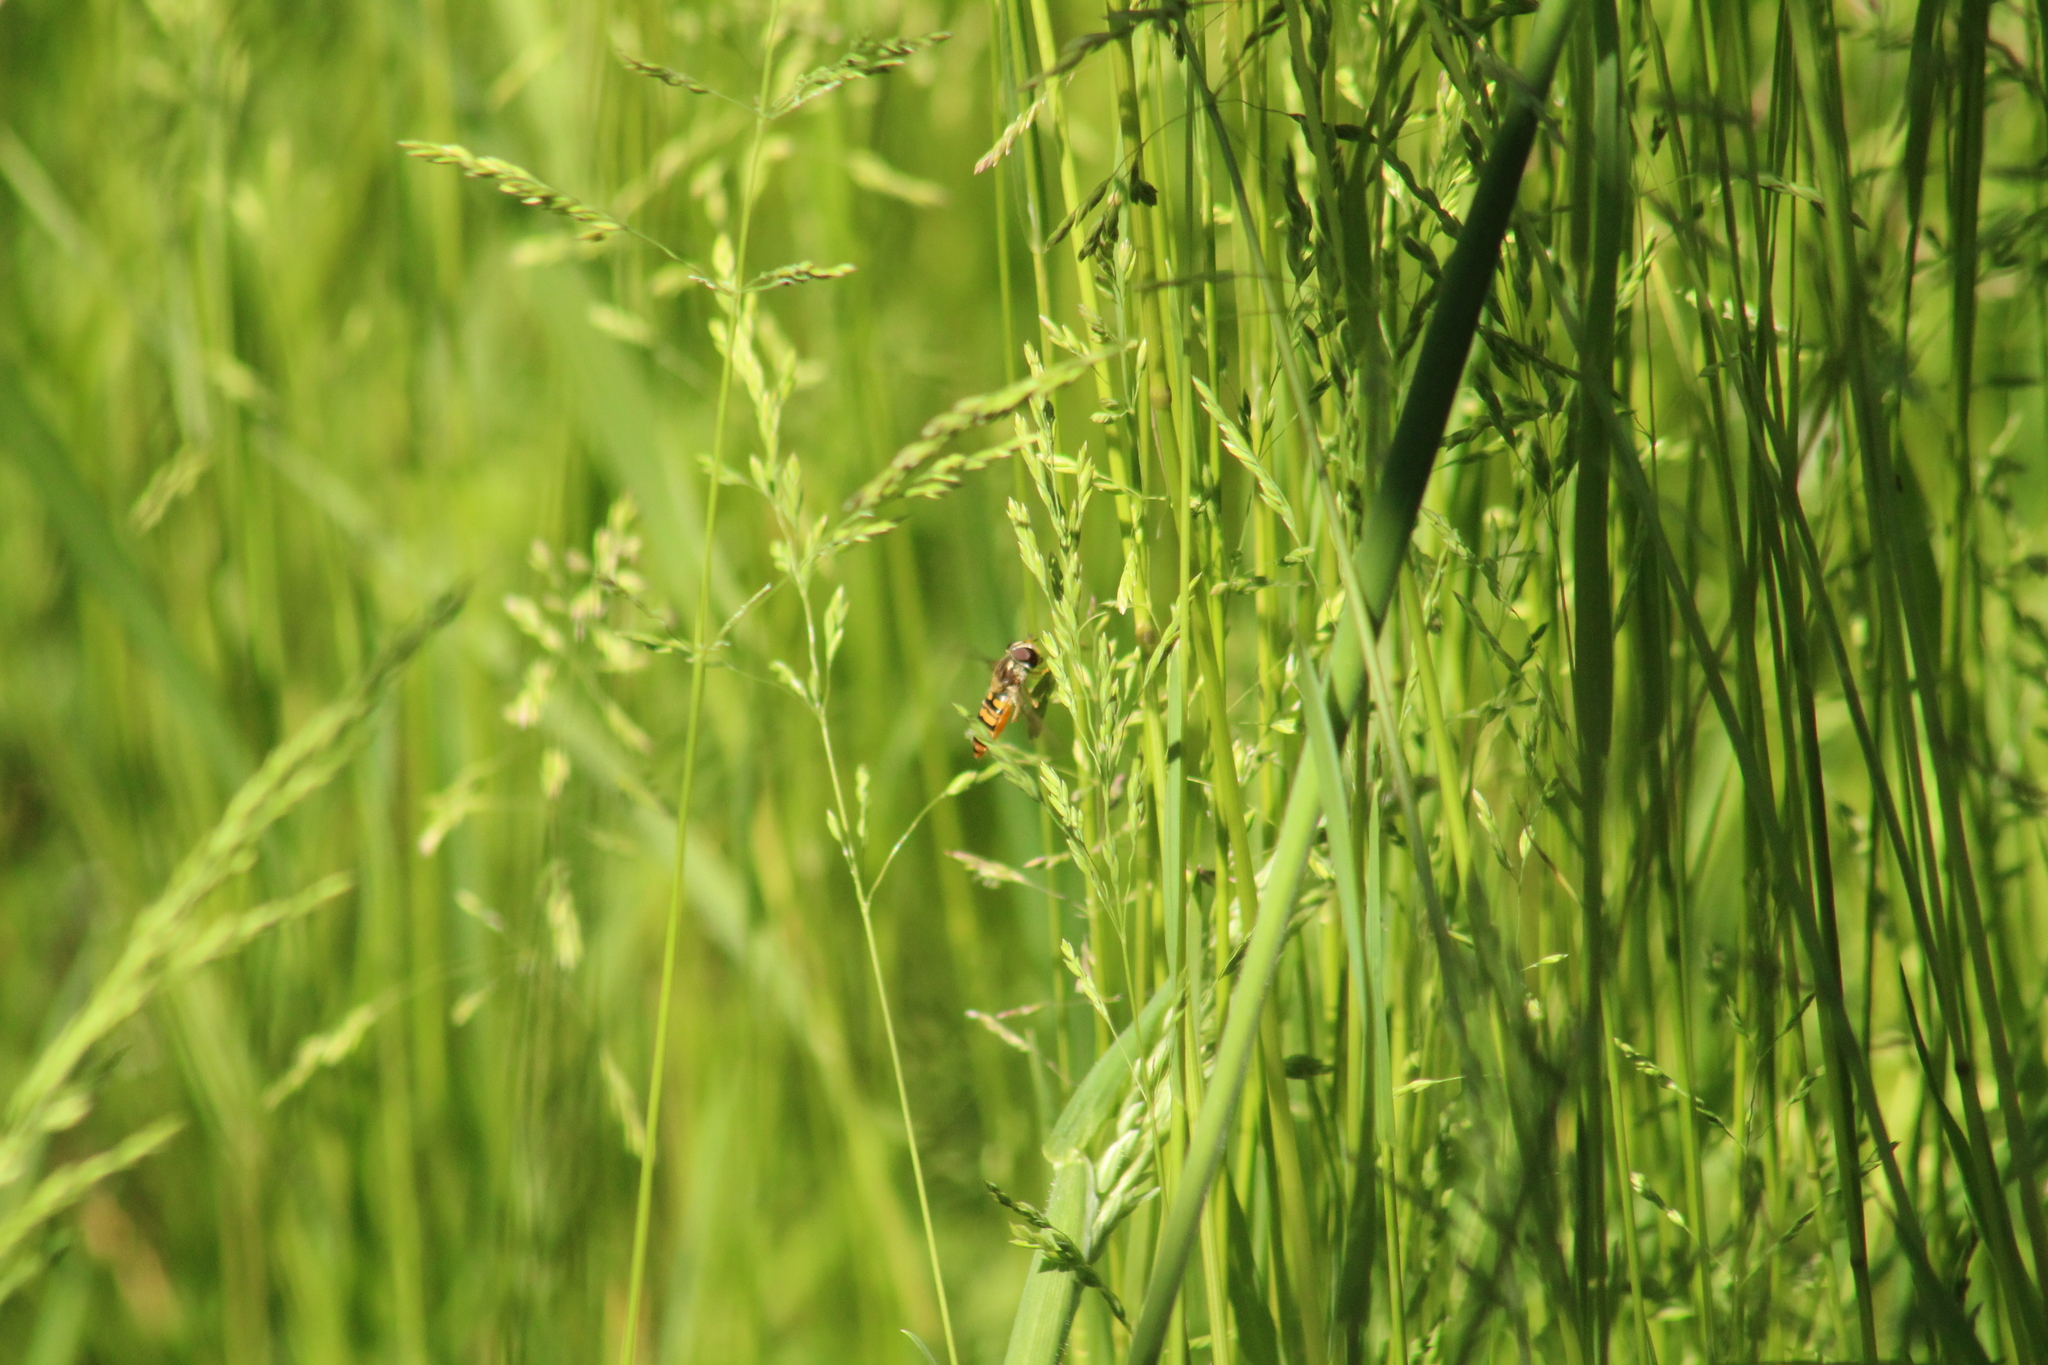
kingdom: Animalia
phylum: Arthropoda
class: Insecta
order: Diptera
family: Syrphidae
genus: Episyrphus
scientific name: Episyrphus balteatus
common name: Marmalade hoverfly
